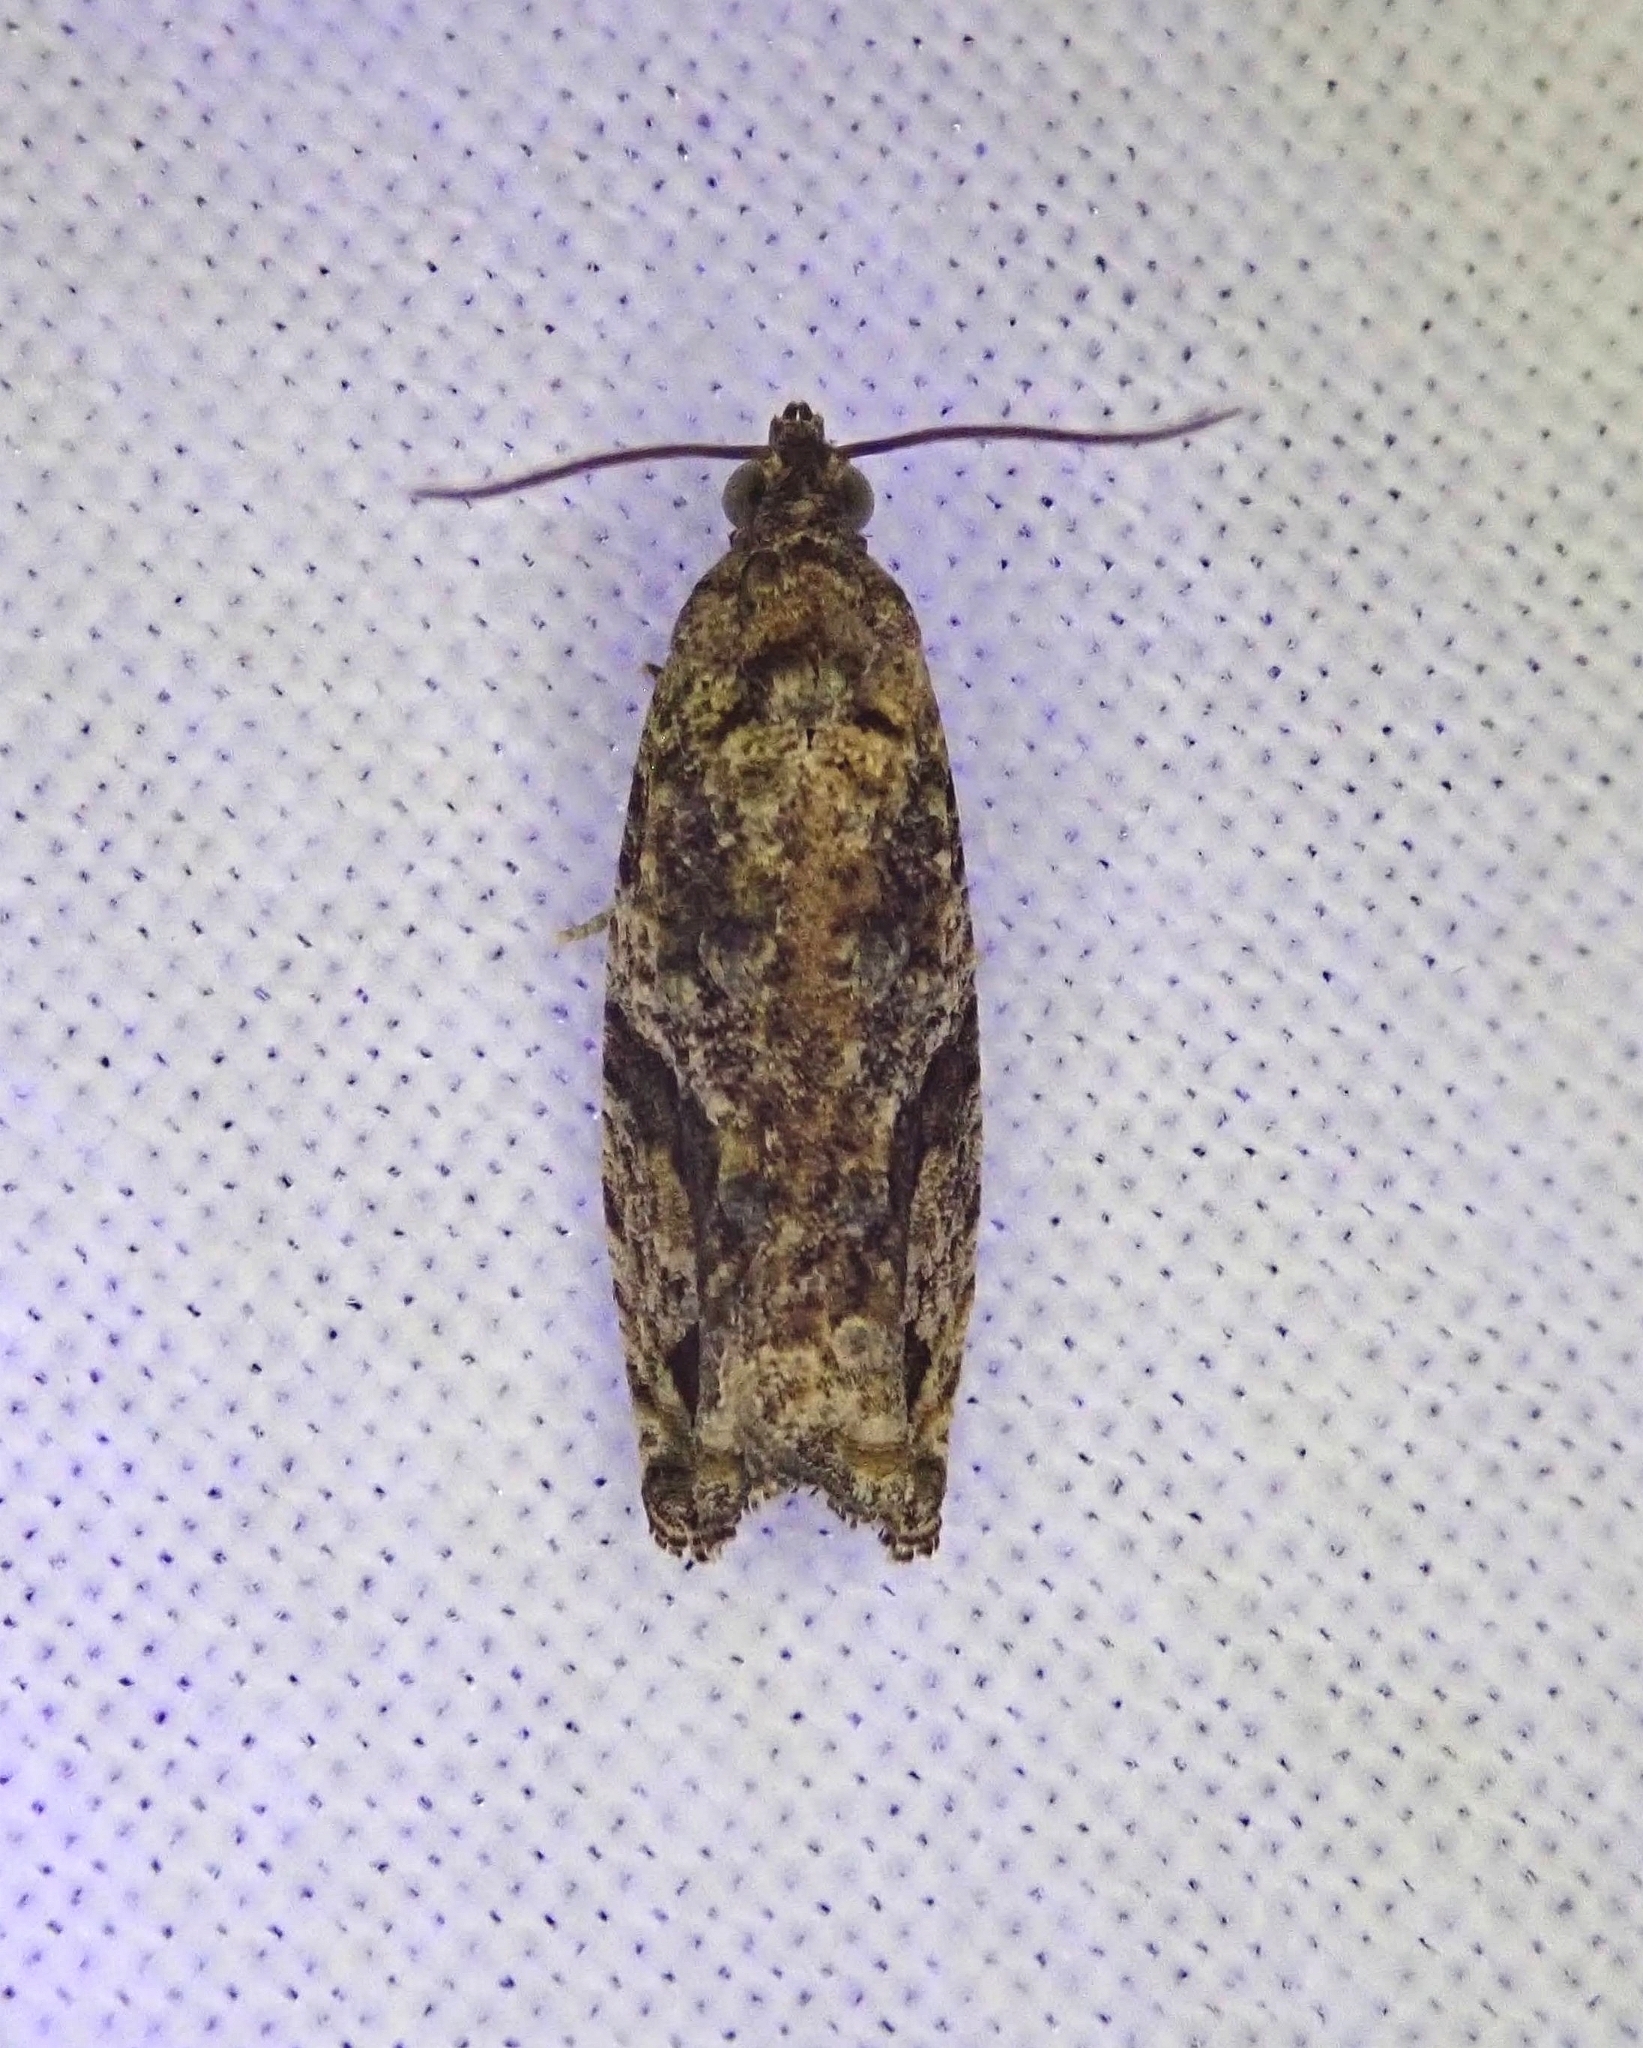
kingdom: Animalia
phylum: Arthropoda
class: Insecta
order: Lepidoptera
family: Tortricidae
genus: Proteoteras
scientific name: Proteoteras aesculana
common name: Maple twig borer moth
